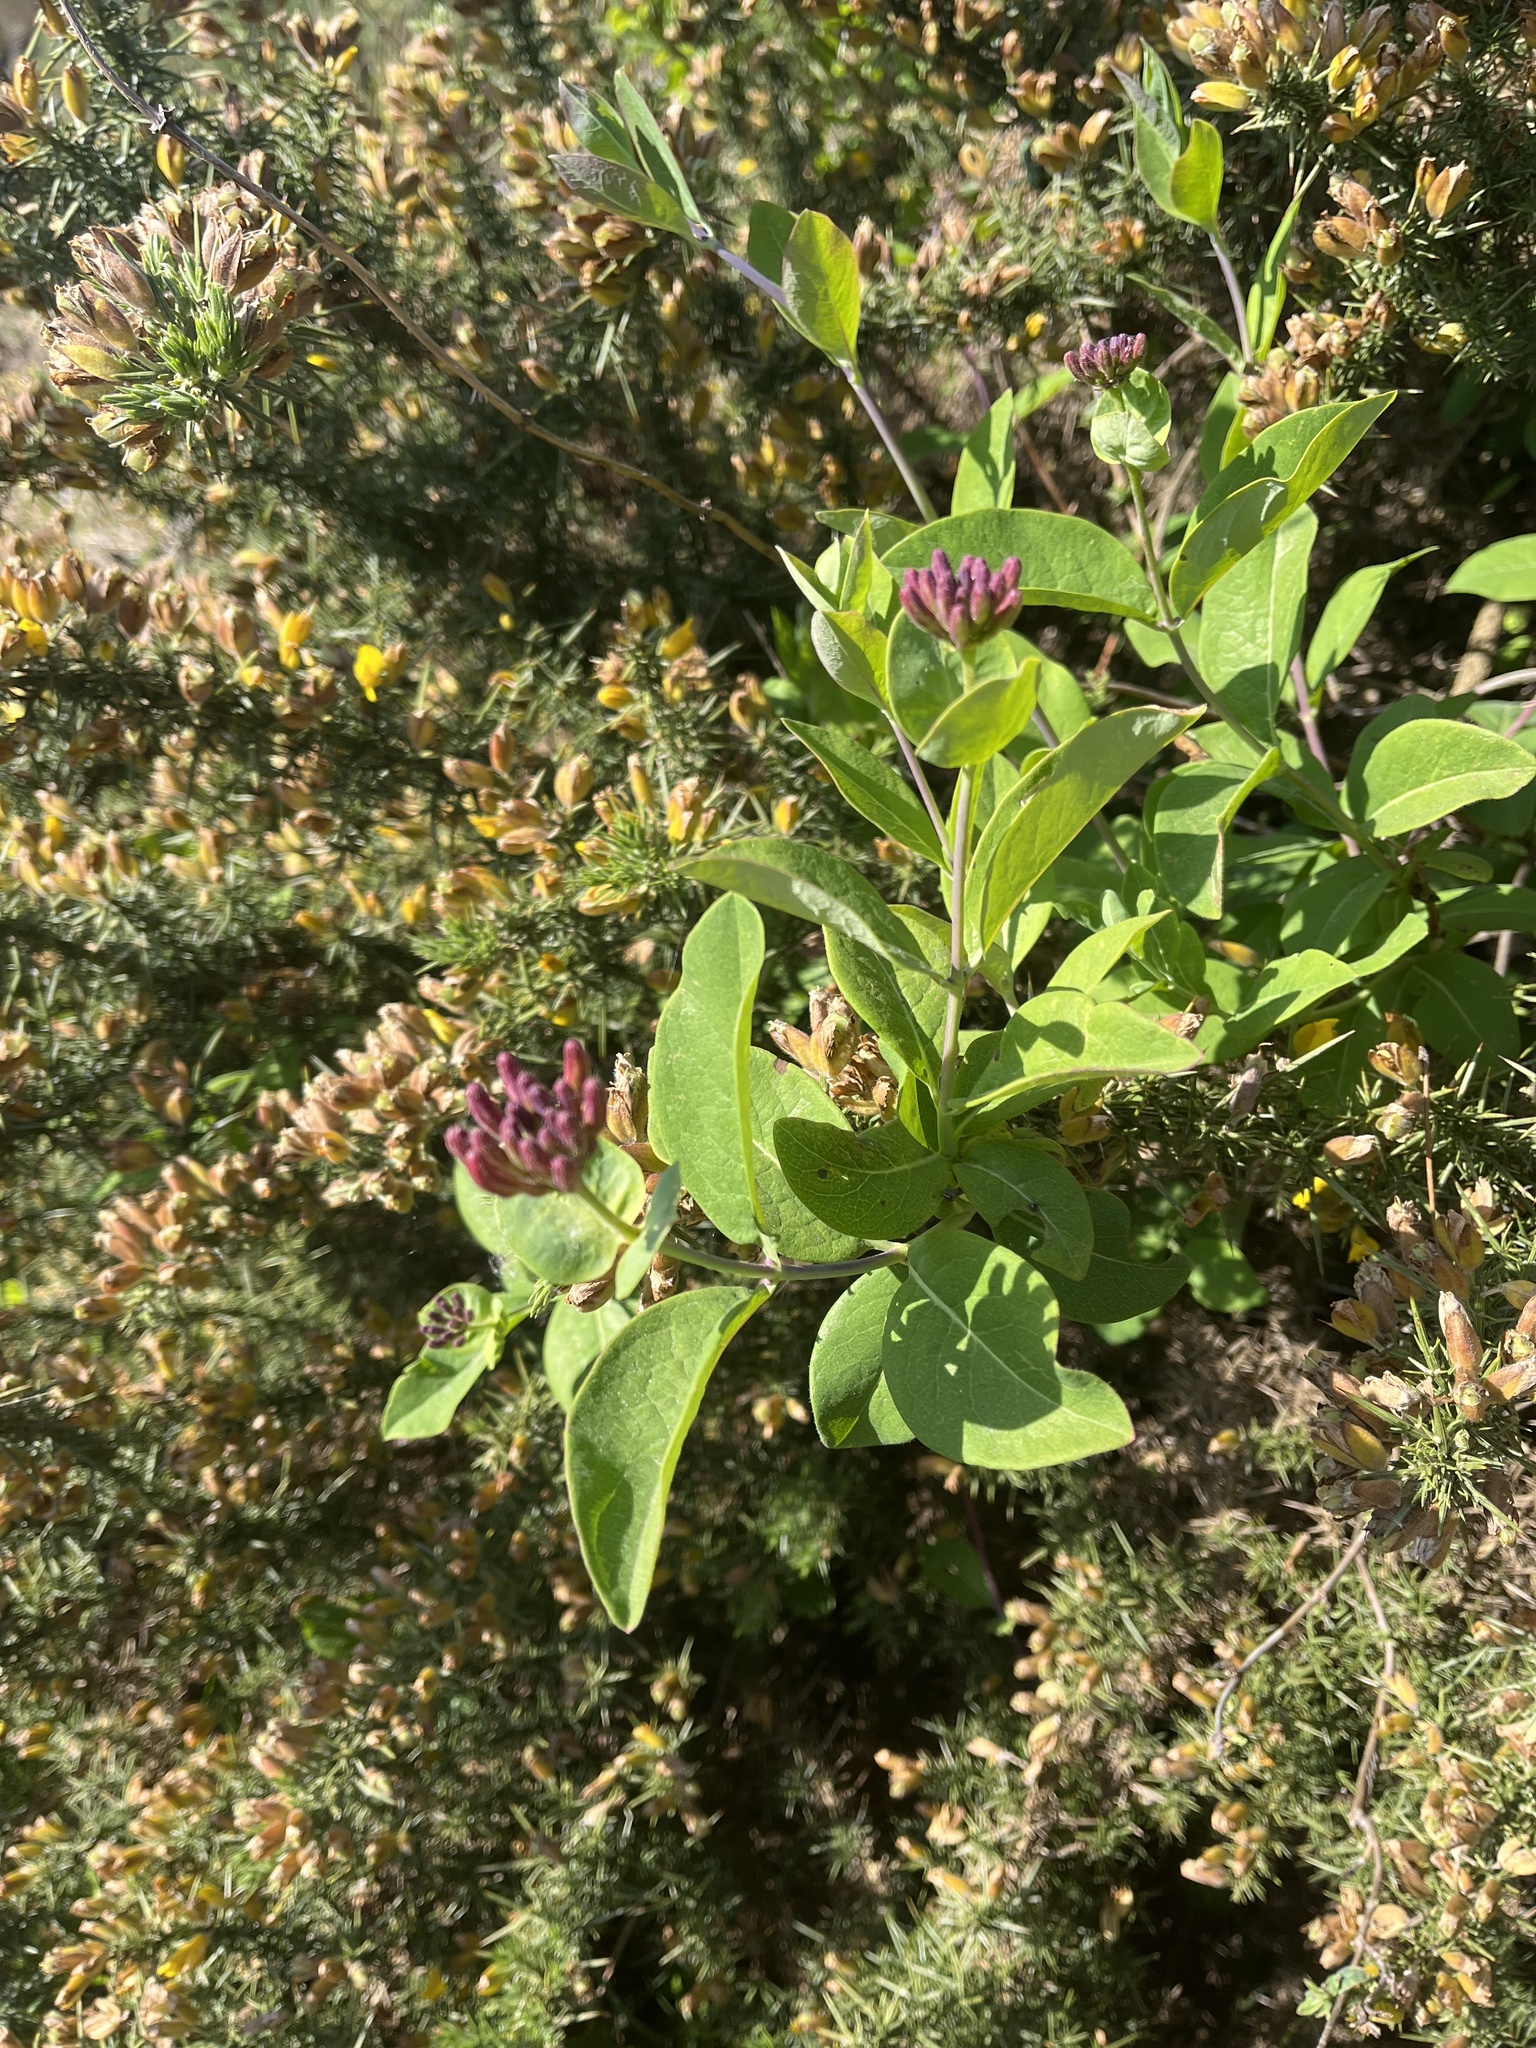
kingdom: Plantae
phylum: Tracheophyta
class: Magnoliopsida
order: Dipsacales
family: Caprifoliaceae
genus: Lonicera
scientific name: Lonicera periclymenum
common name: European honeysuckle
